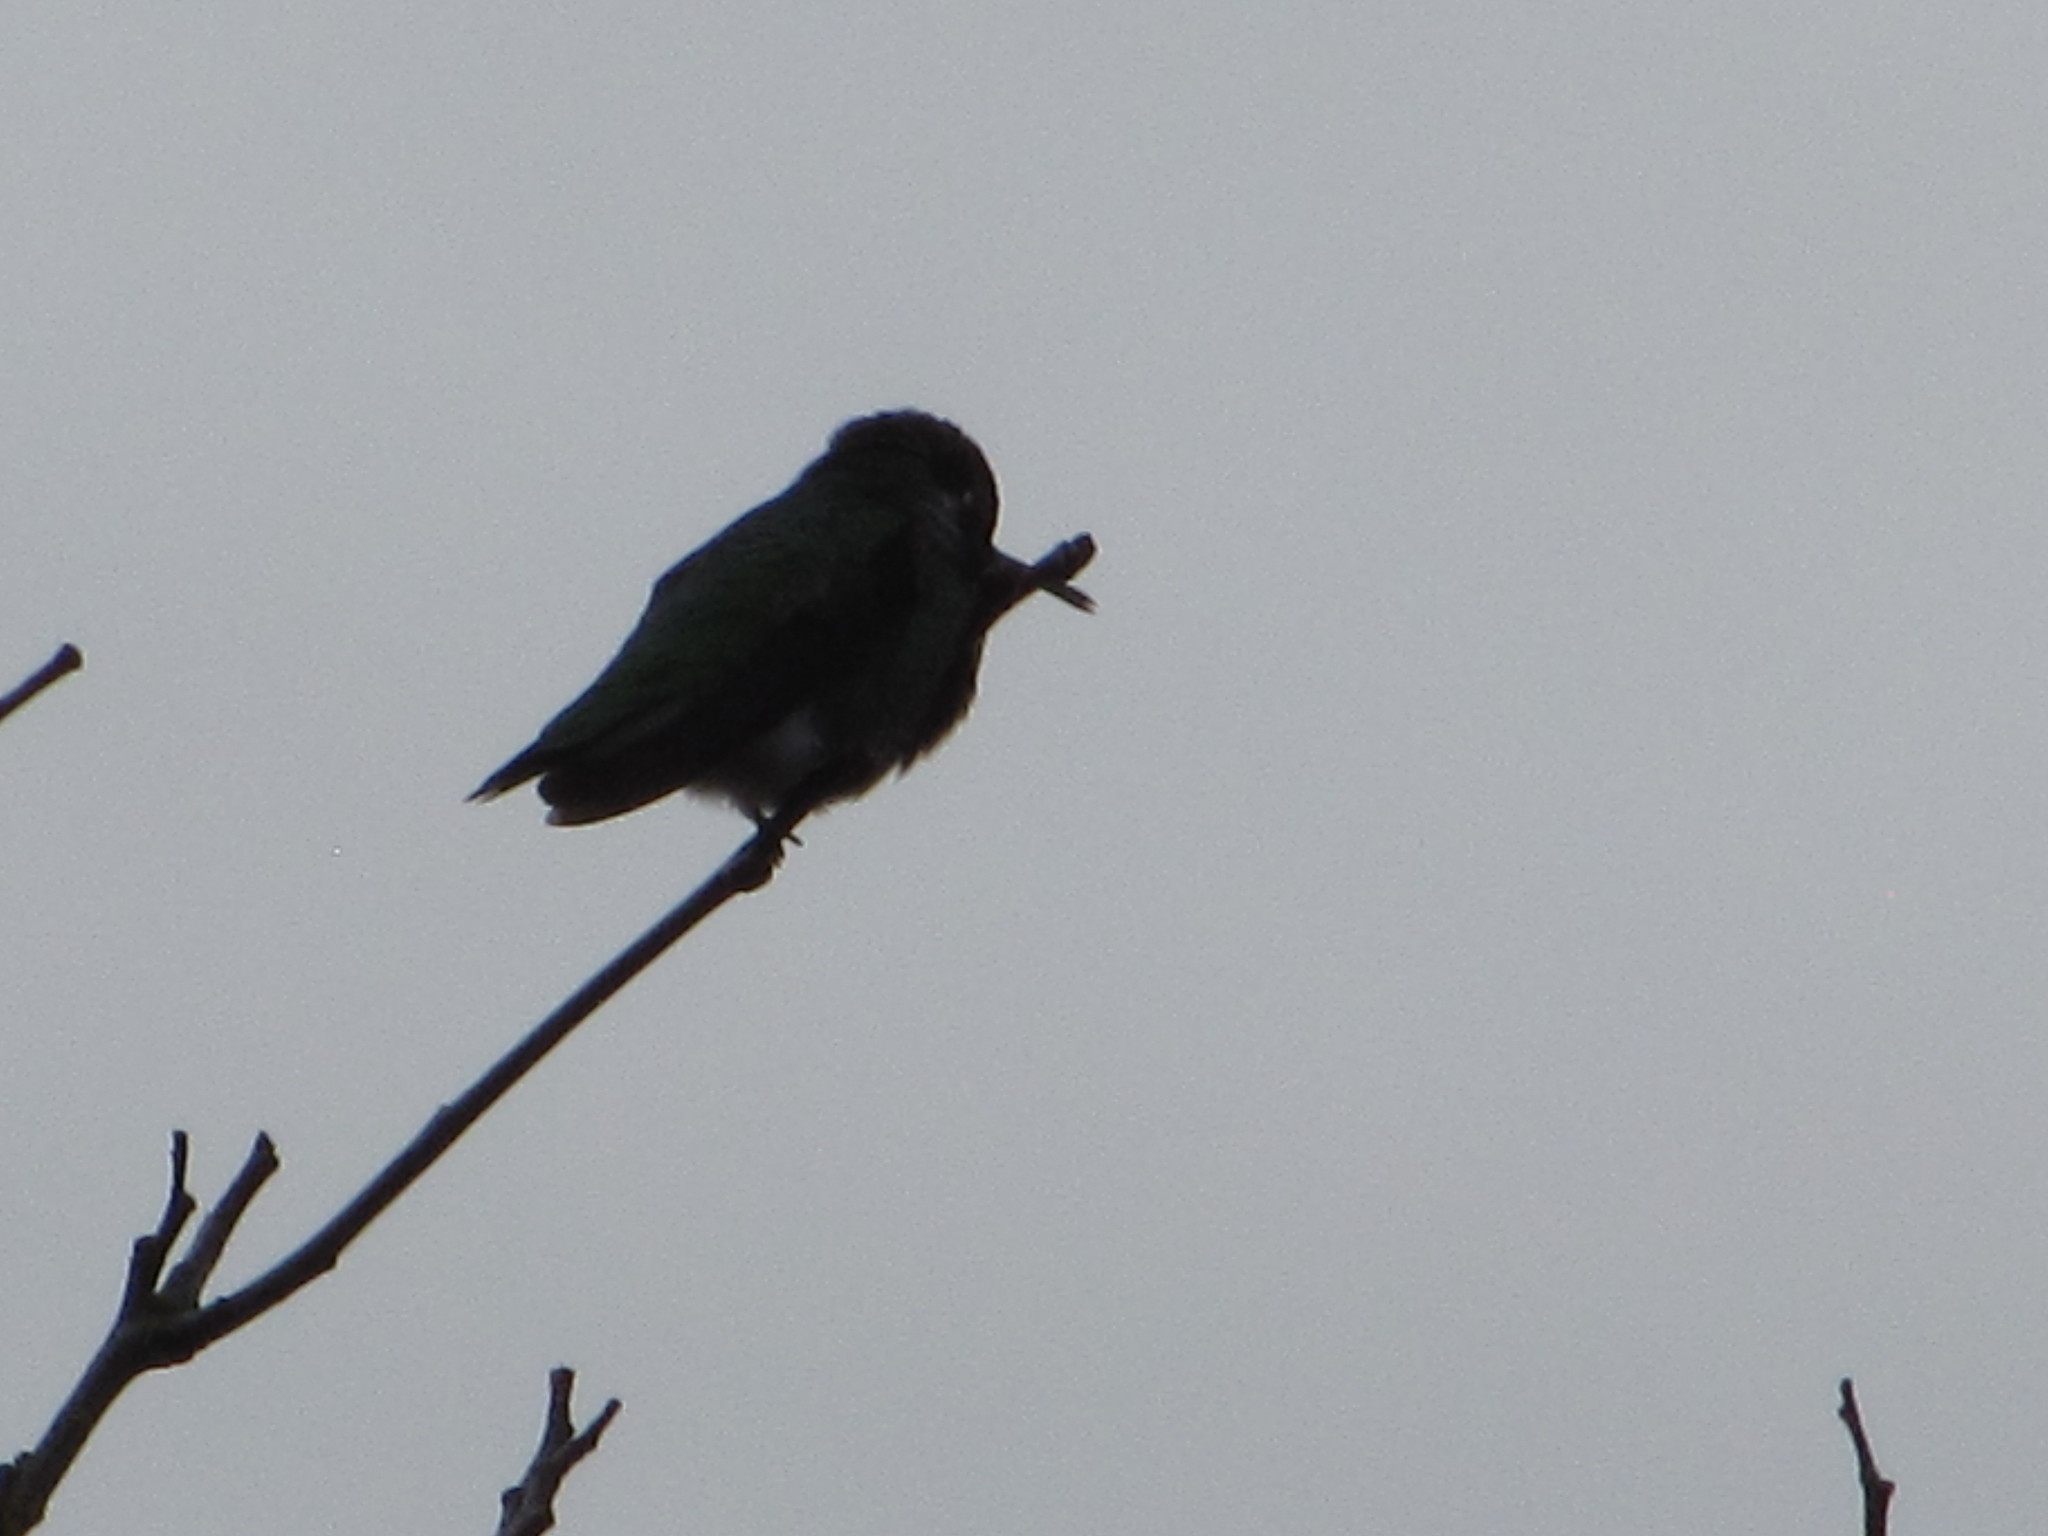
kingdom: Animalia
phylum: Chordata
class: Aves
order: Apodiformes
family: Trochilidae
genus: Calypte
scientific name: Calypte anna
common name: Anna's hummingbird
